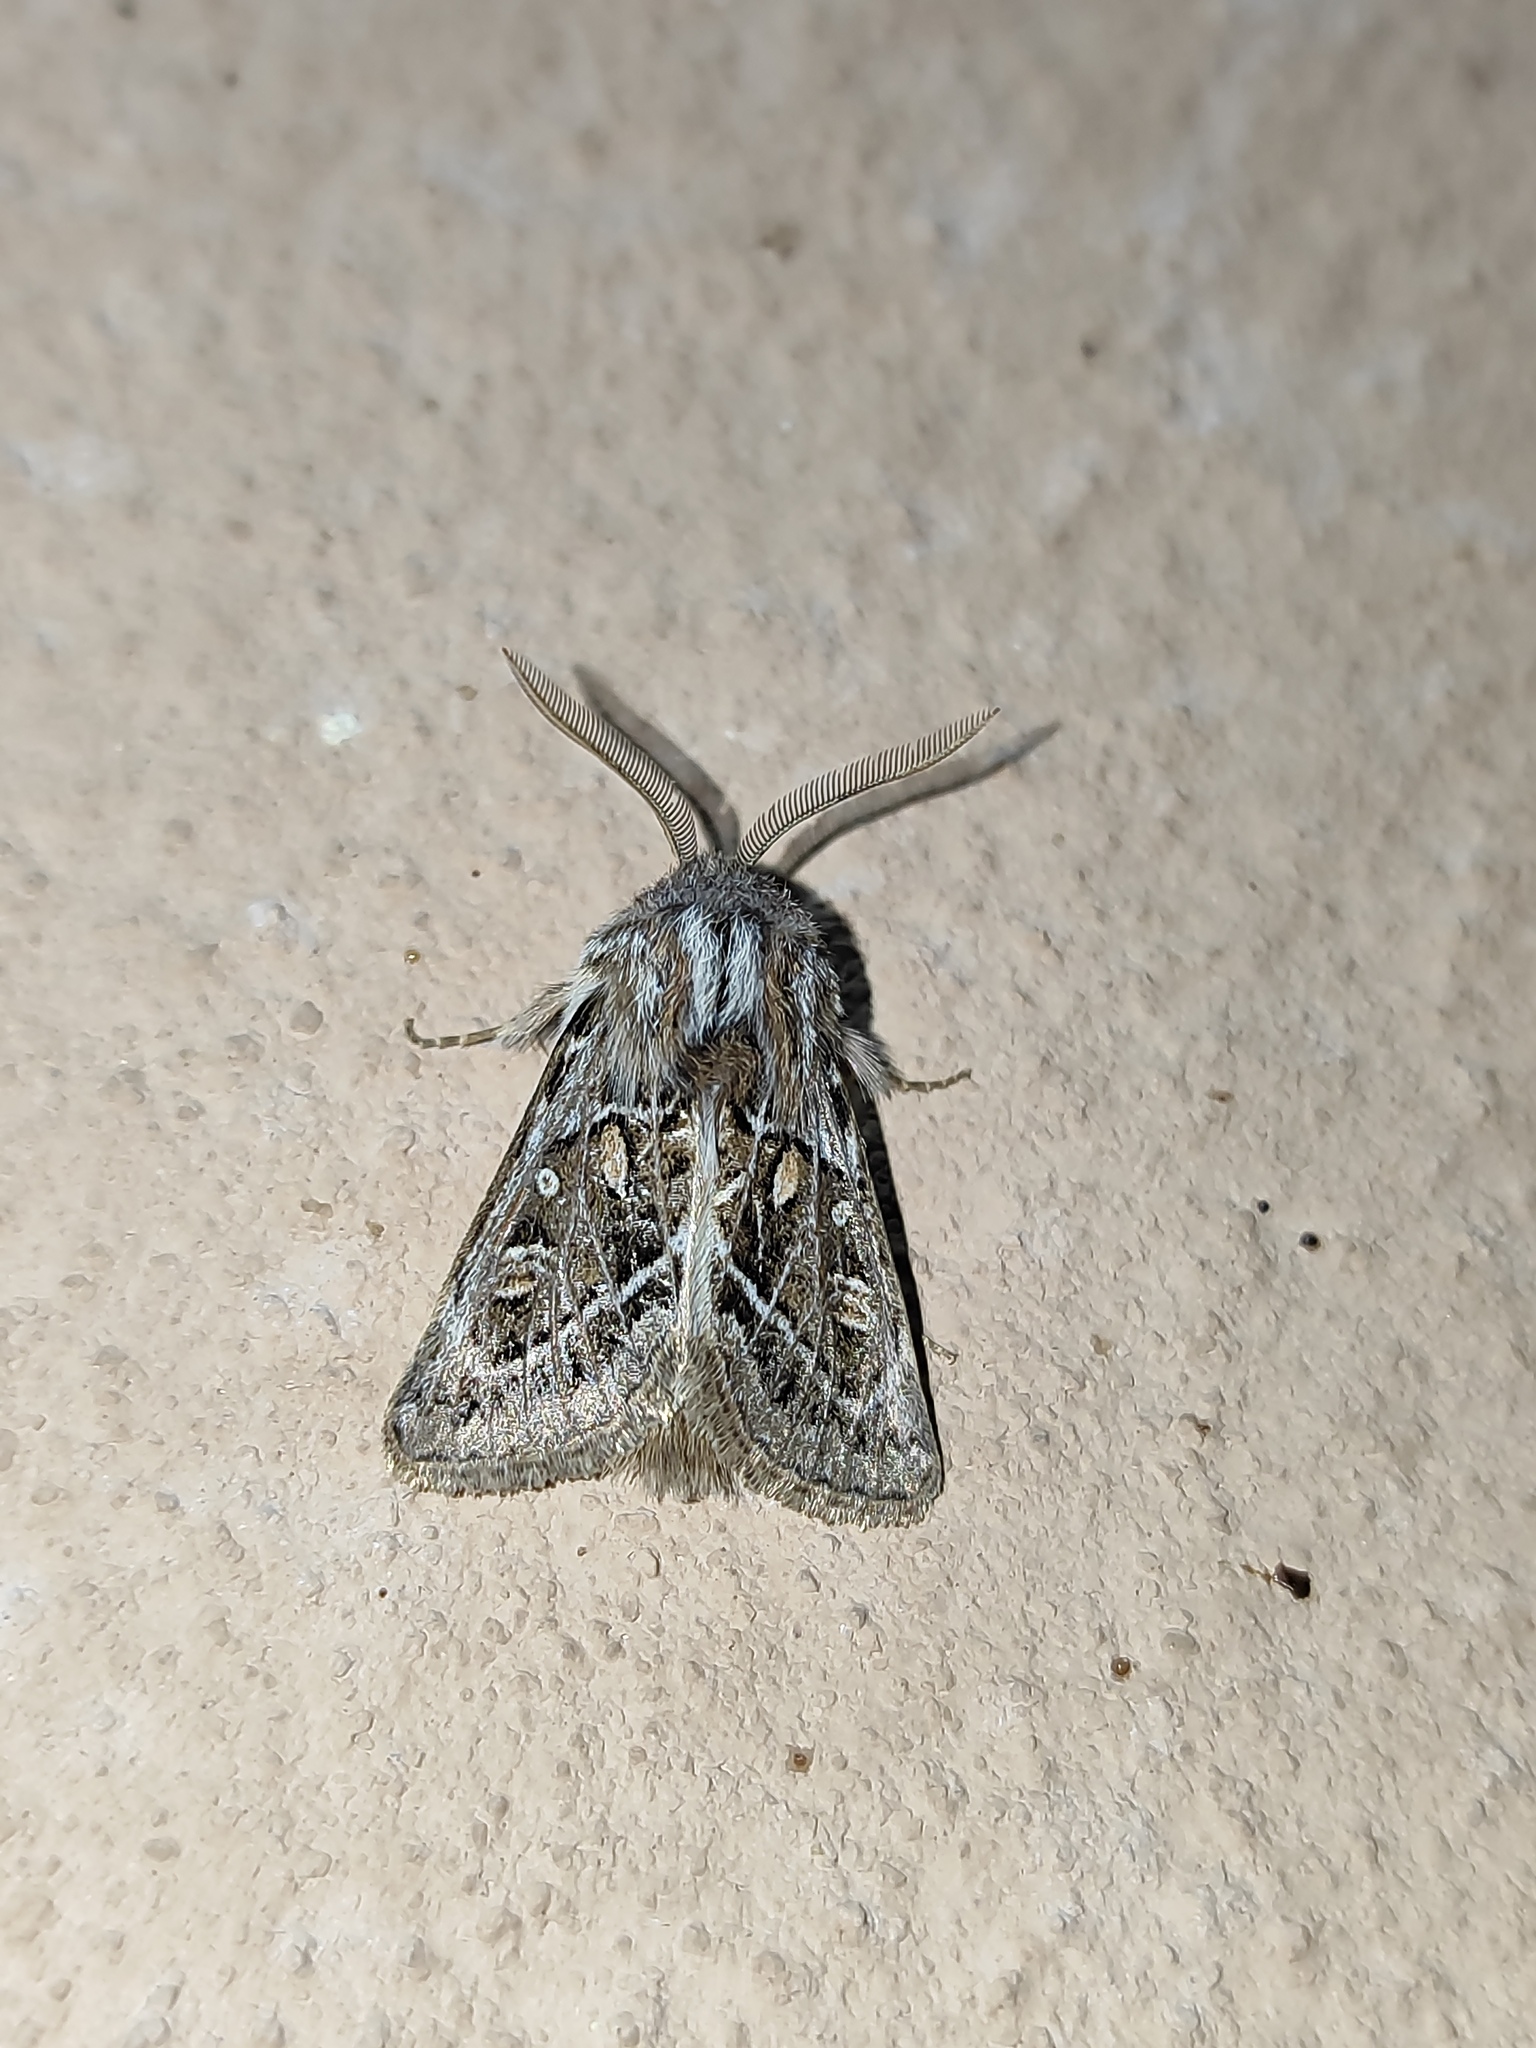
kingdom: Animalia
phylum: Arthropoda
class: Insecta
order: Lepidoptera
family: Noctuidae
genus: Ulochlaena
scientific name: Ulochlaena hirta
